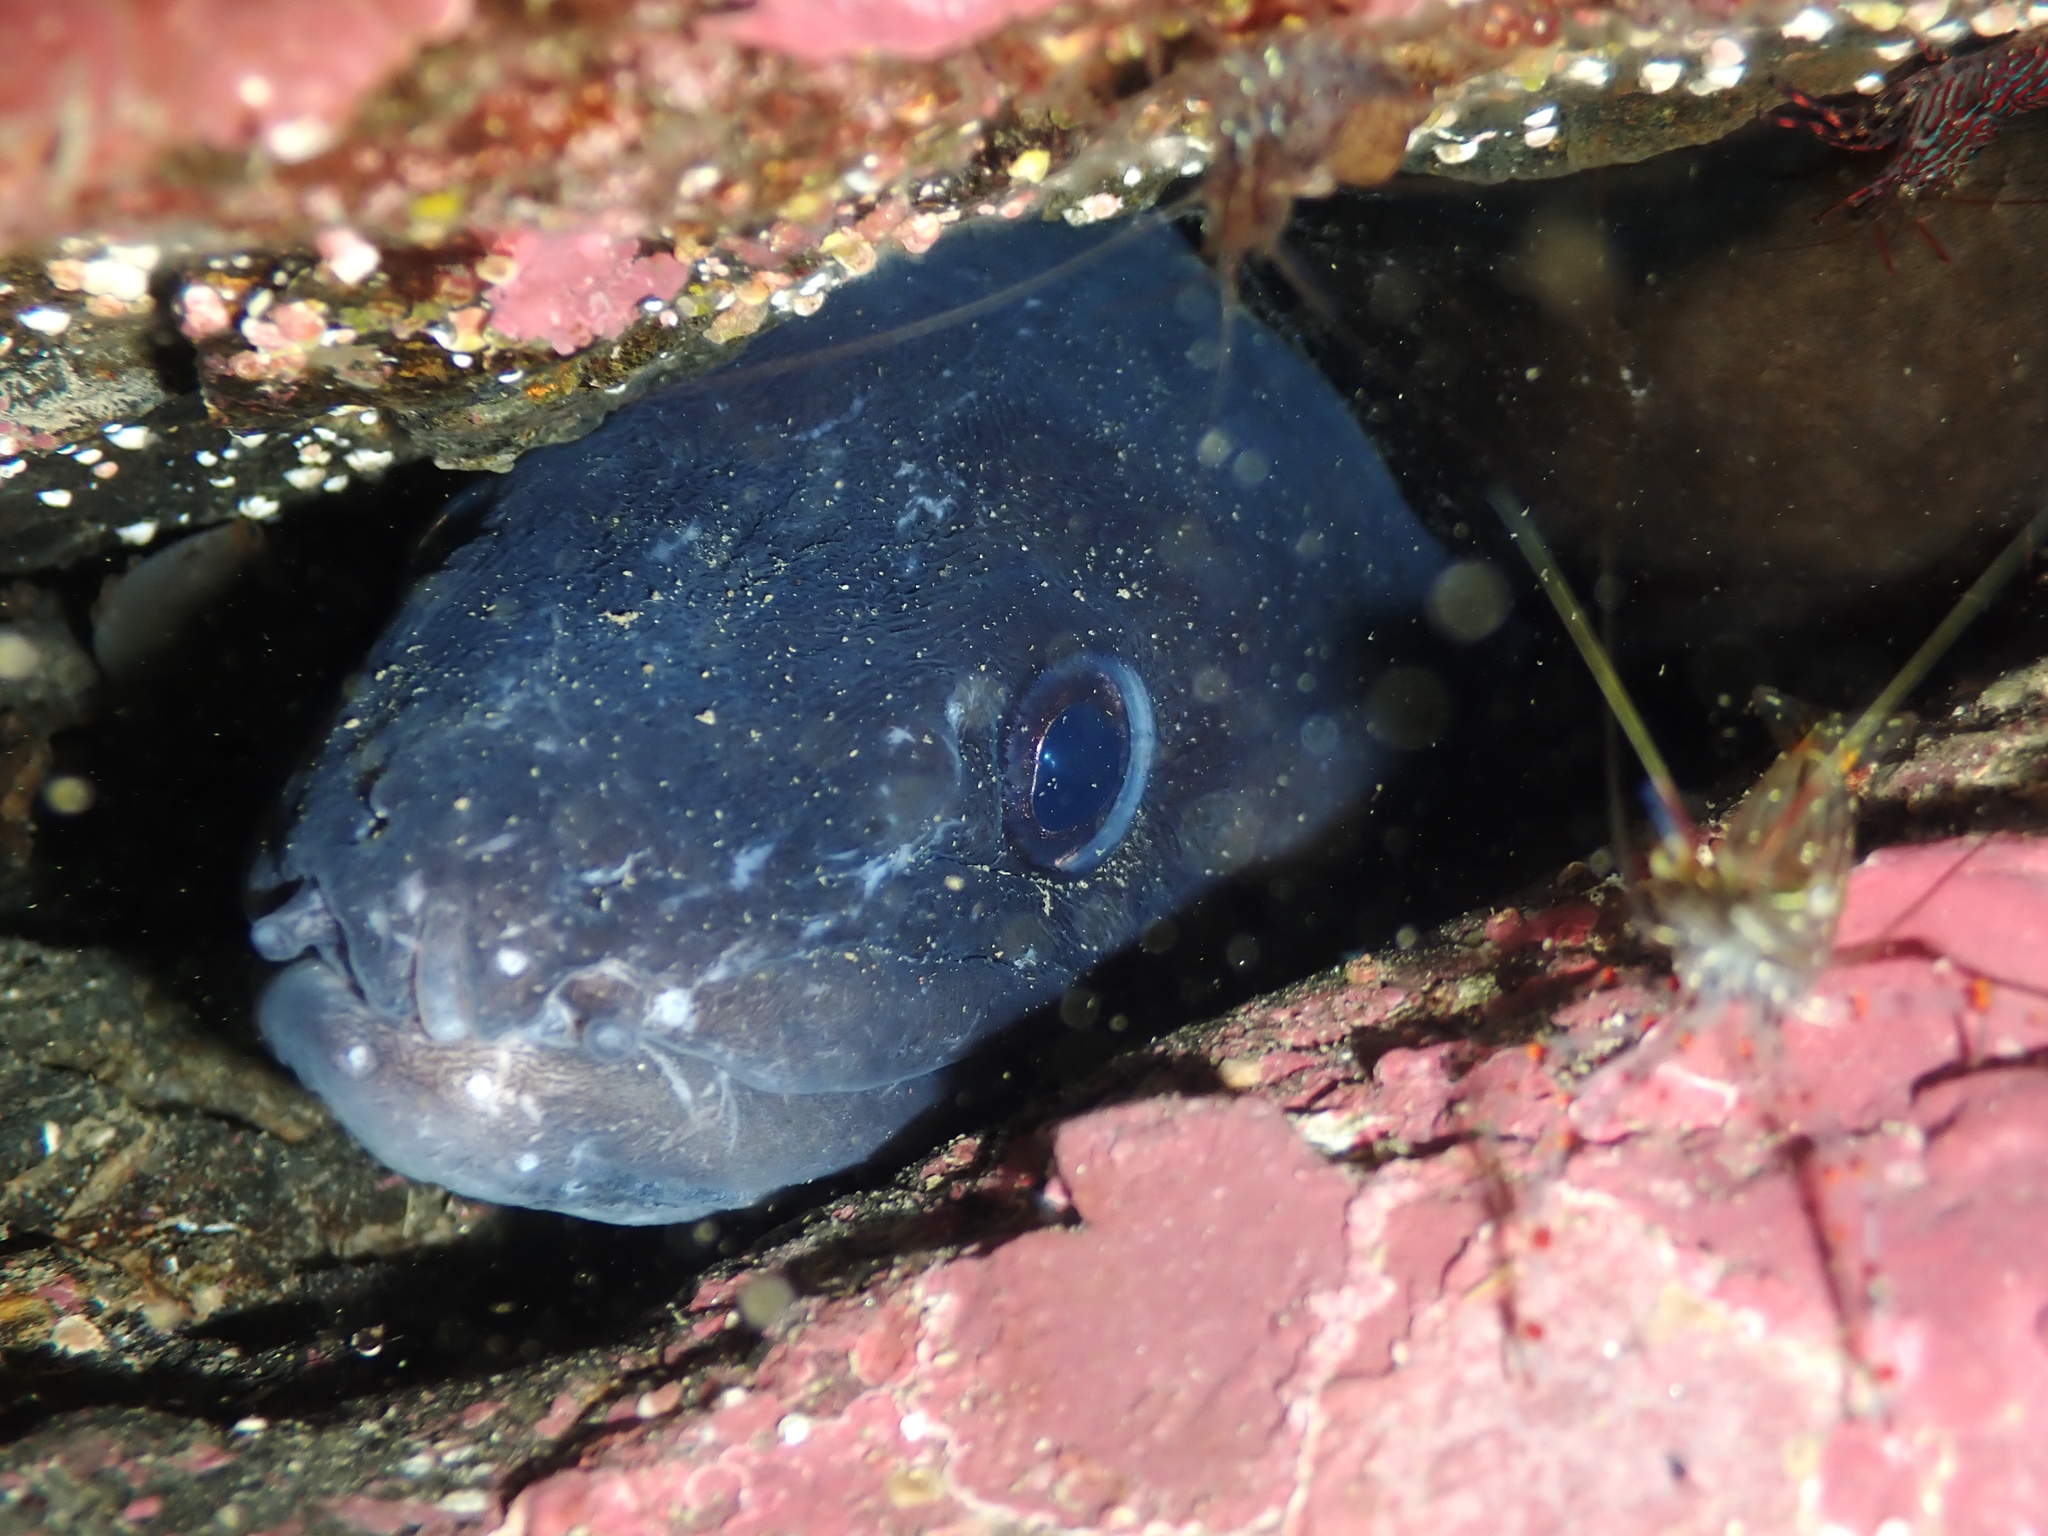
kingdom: Animalia
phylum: Chordata
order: Anguilliformes
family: Congridae
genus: Conger
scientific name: Conger verreauxi
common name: Conger eel
